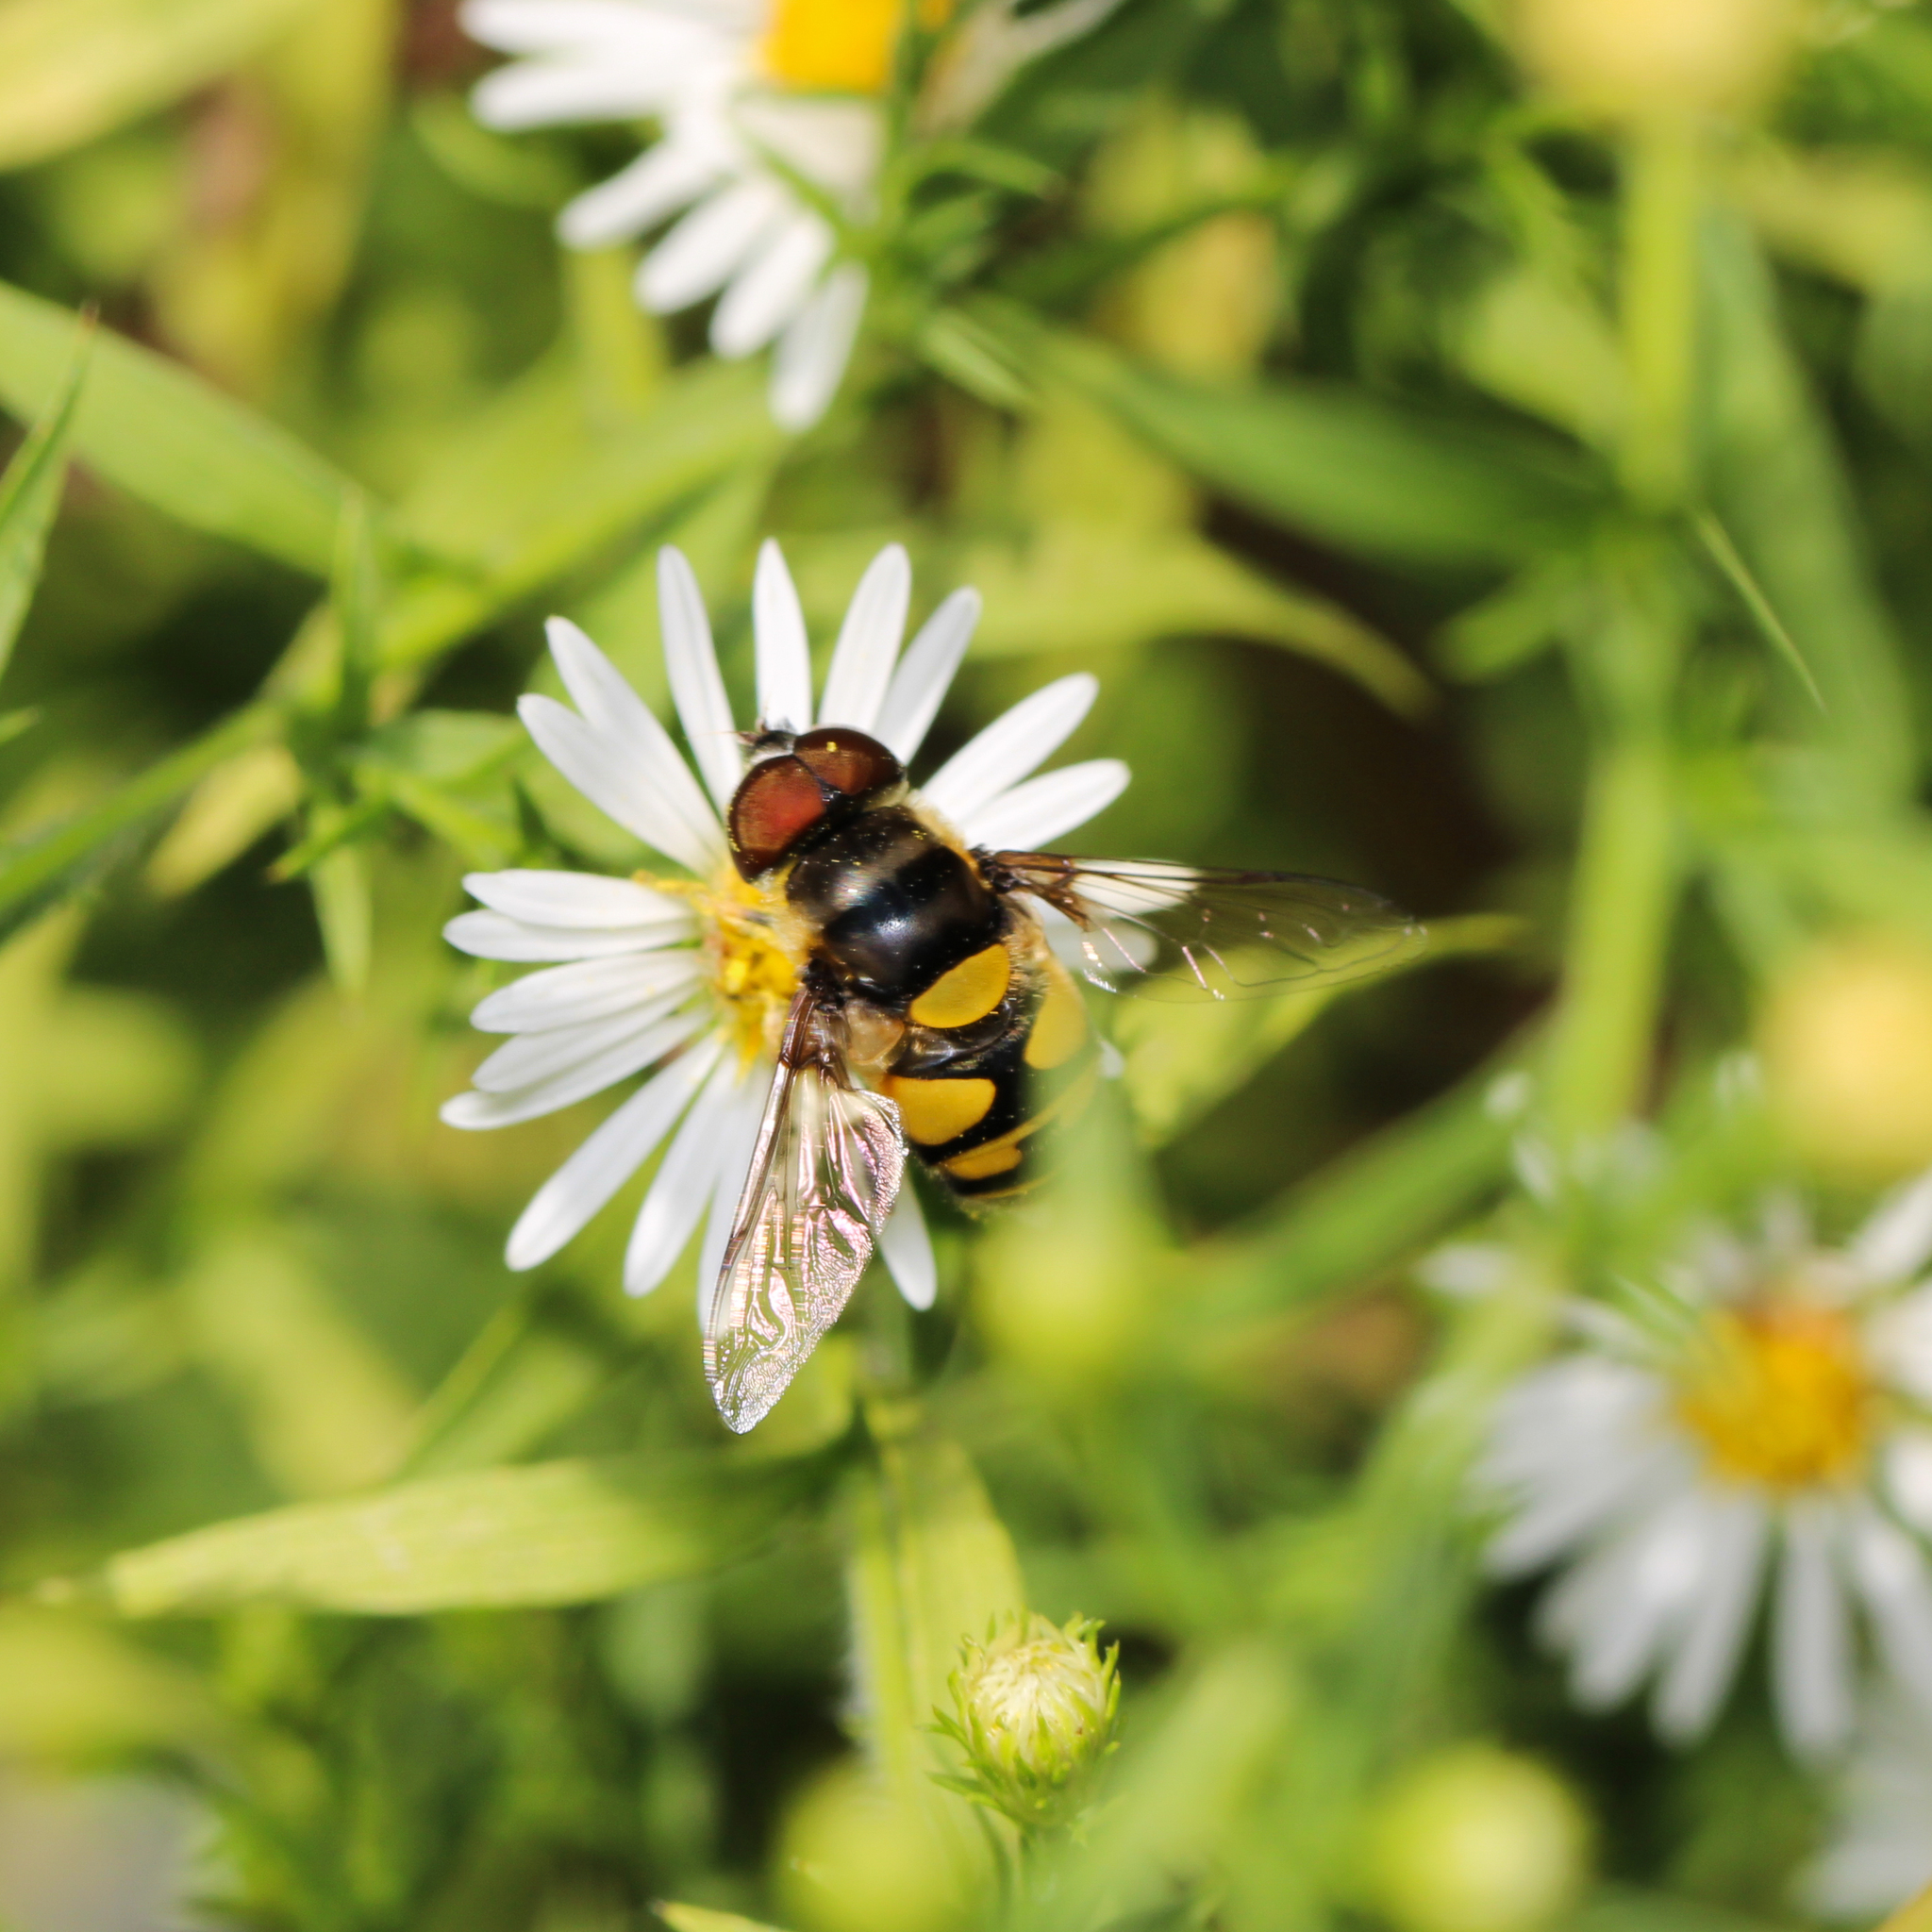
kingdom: Animalia
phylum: Arthropoda
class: Insecta
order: Diptera
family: Syrphidae
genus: Eristalis
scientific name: Eristalis transversa
